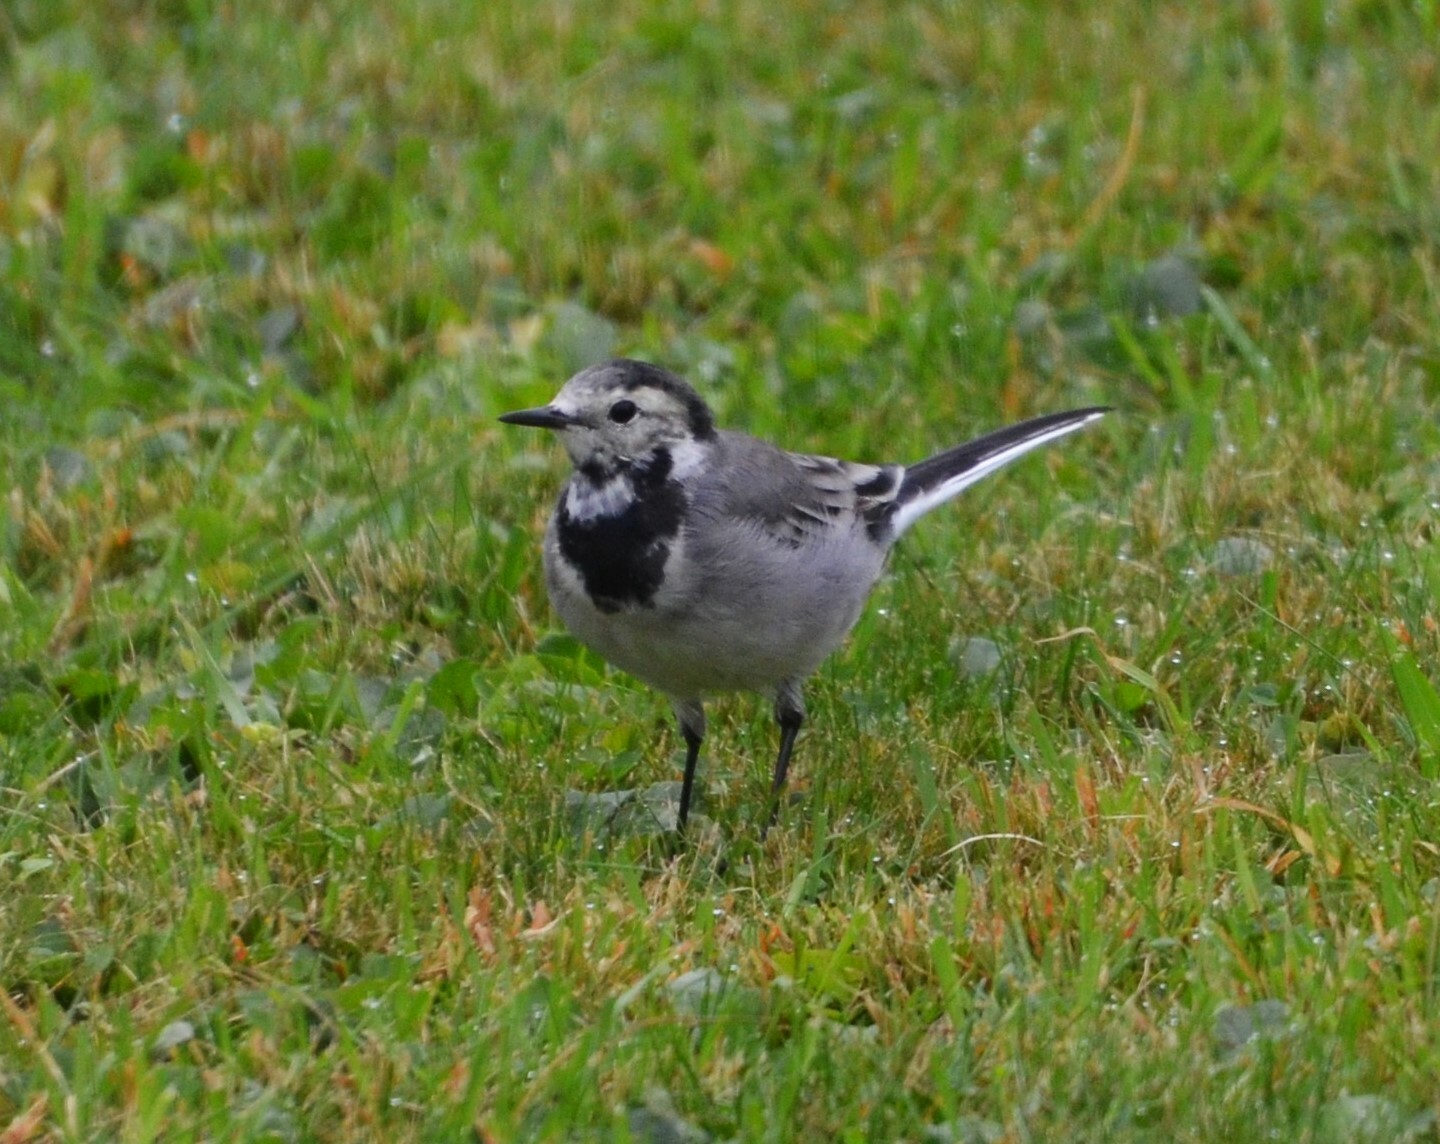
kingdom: Animalia
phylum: Chordata
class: Aves
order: Passeriformes
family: Motacillidae
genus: Motacilla
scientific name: Motacilla alba
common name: White wagtail
